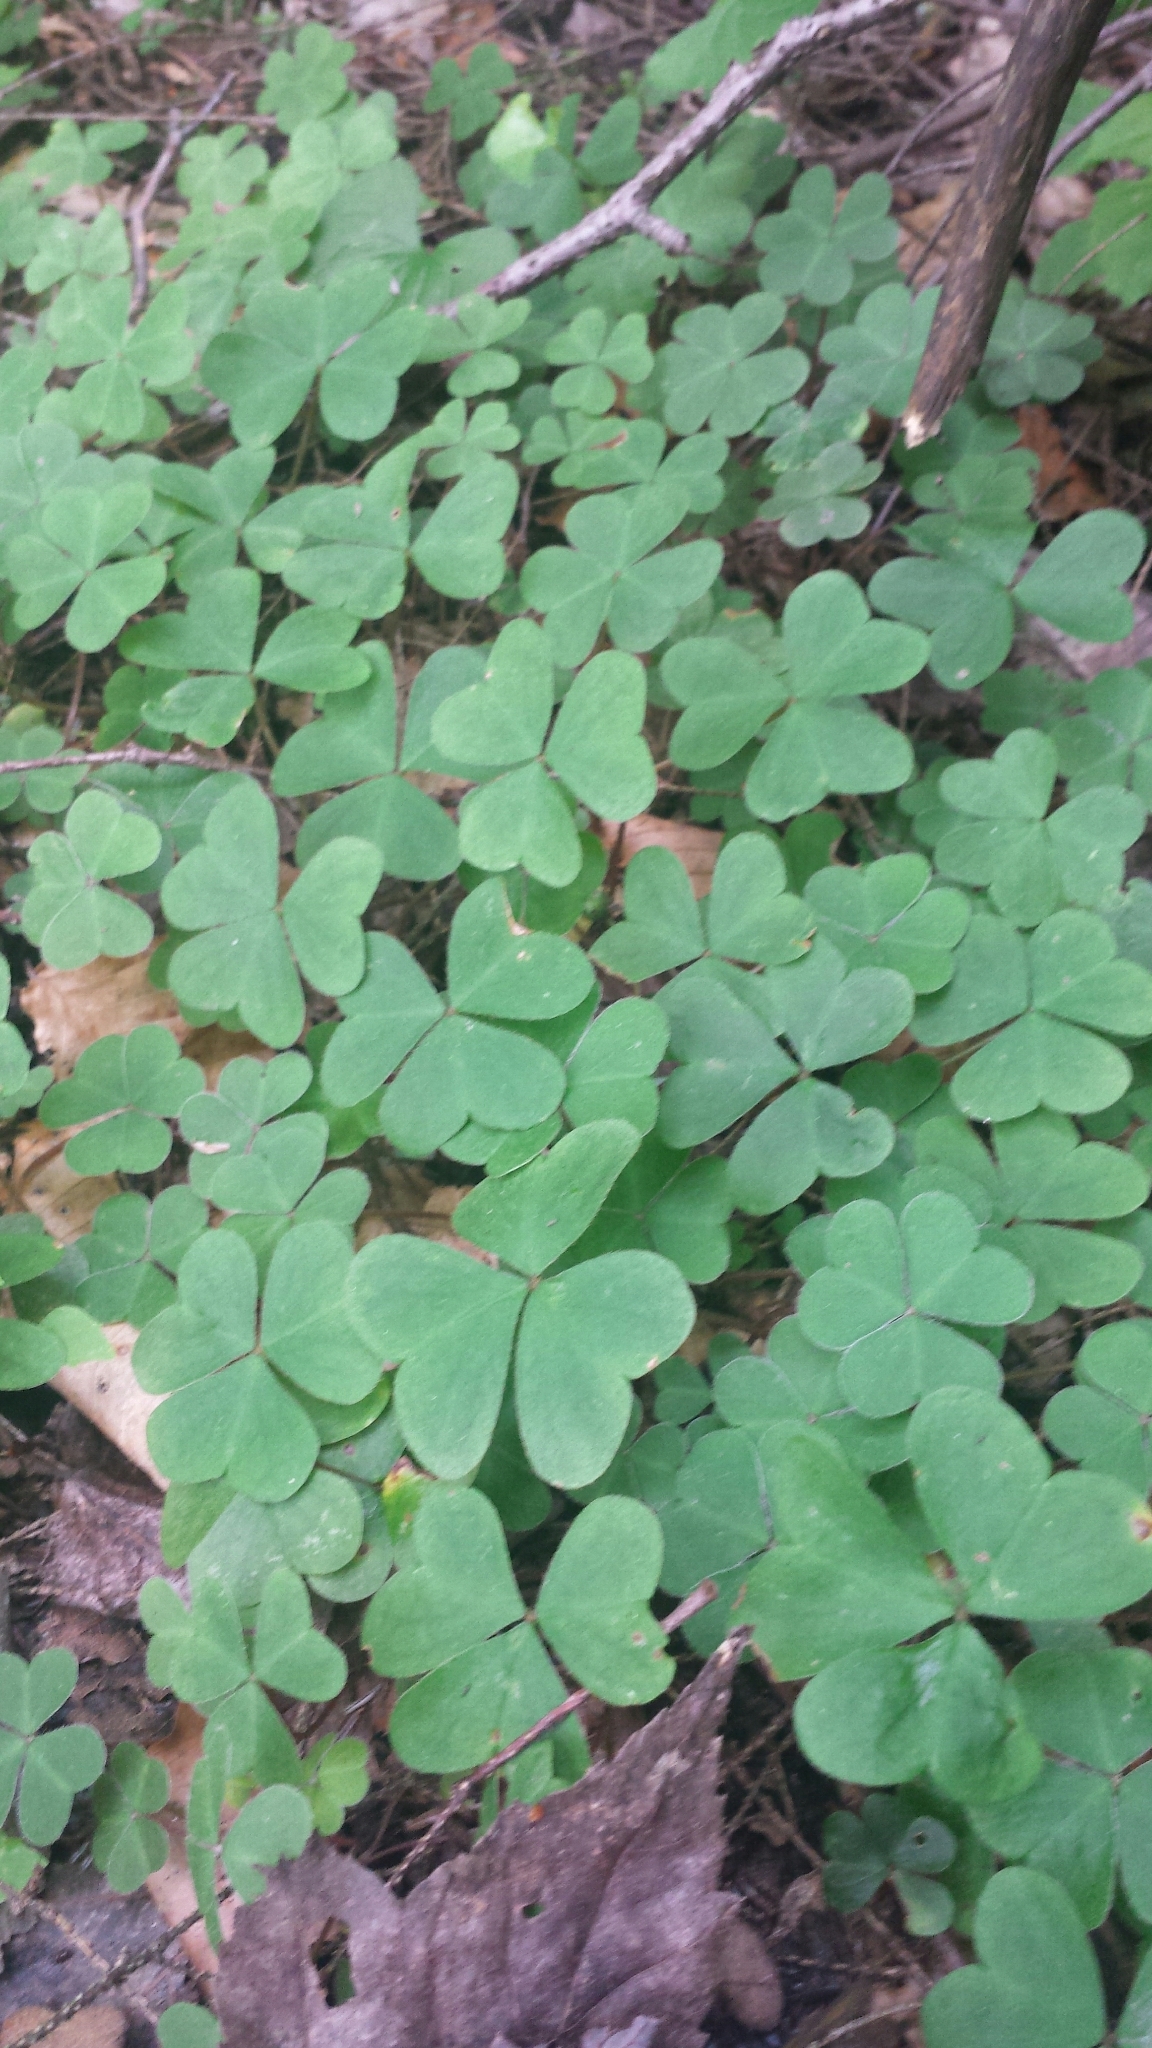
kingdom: Plantae
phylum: Tracheophyta
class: Magnoliopsida
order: Oxalidales
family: Oxalidaceae
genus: Oxalis
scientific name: Oxalis montana
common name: American wood-sorrel
